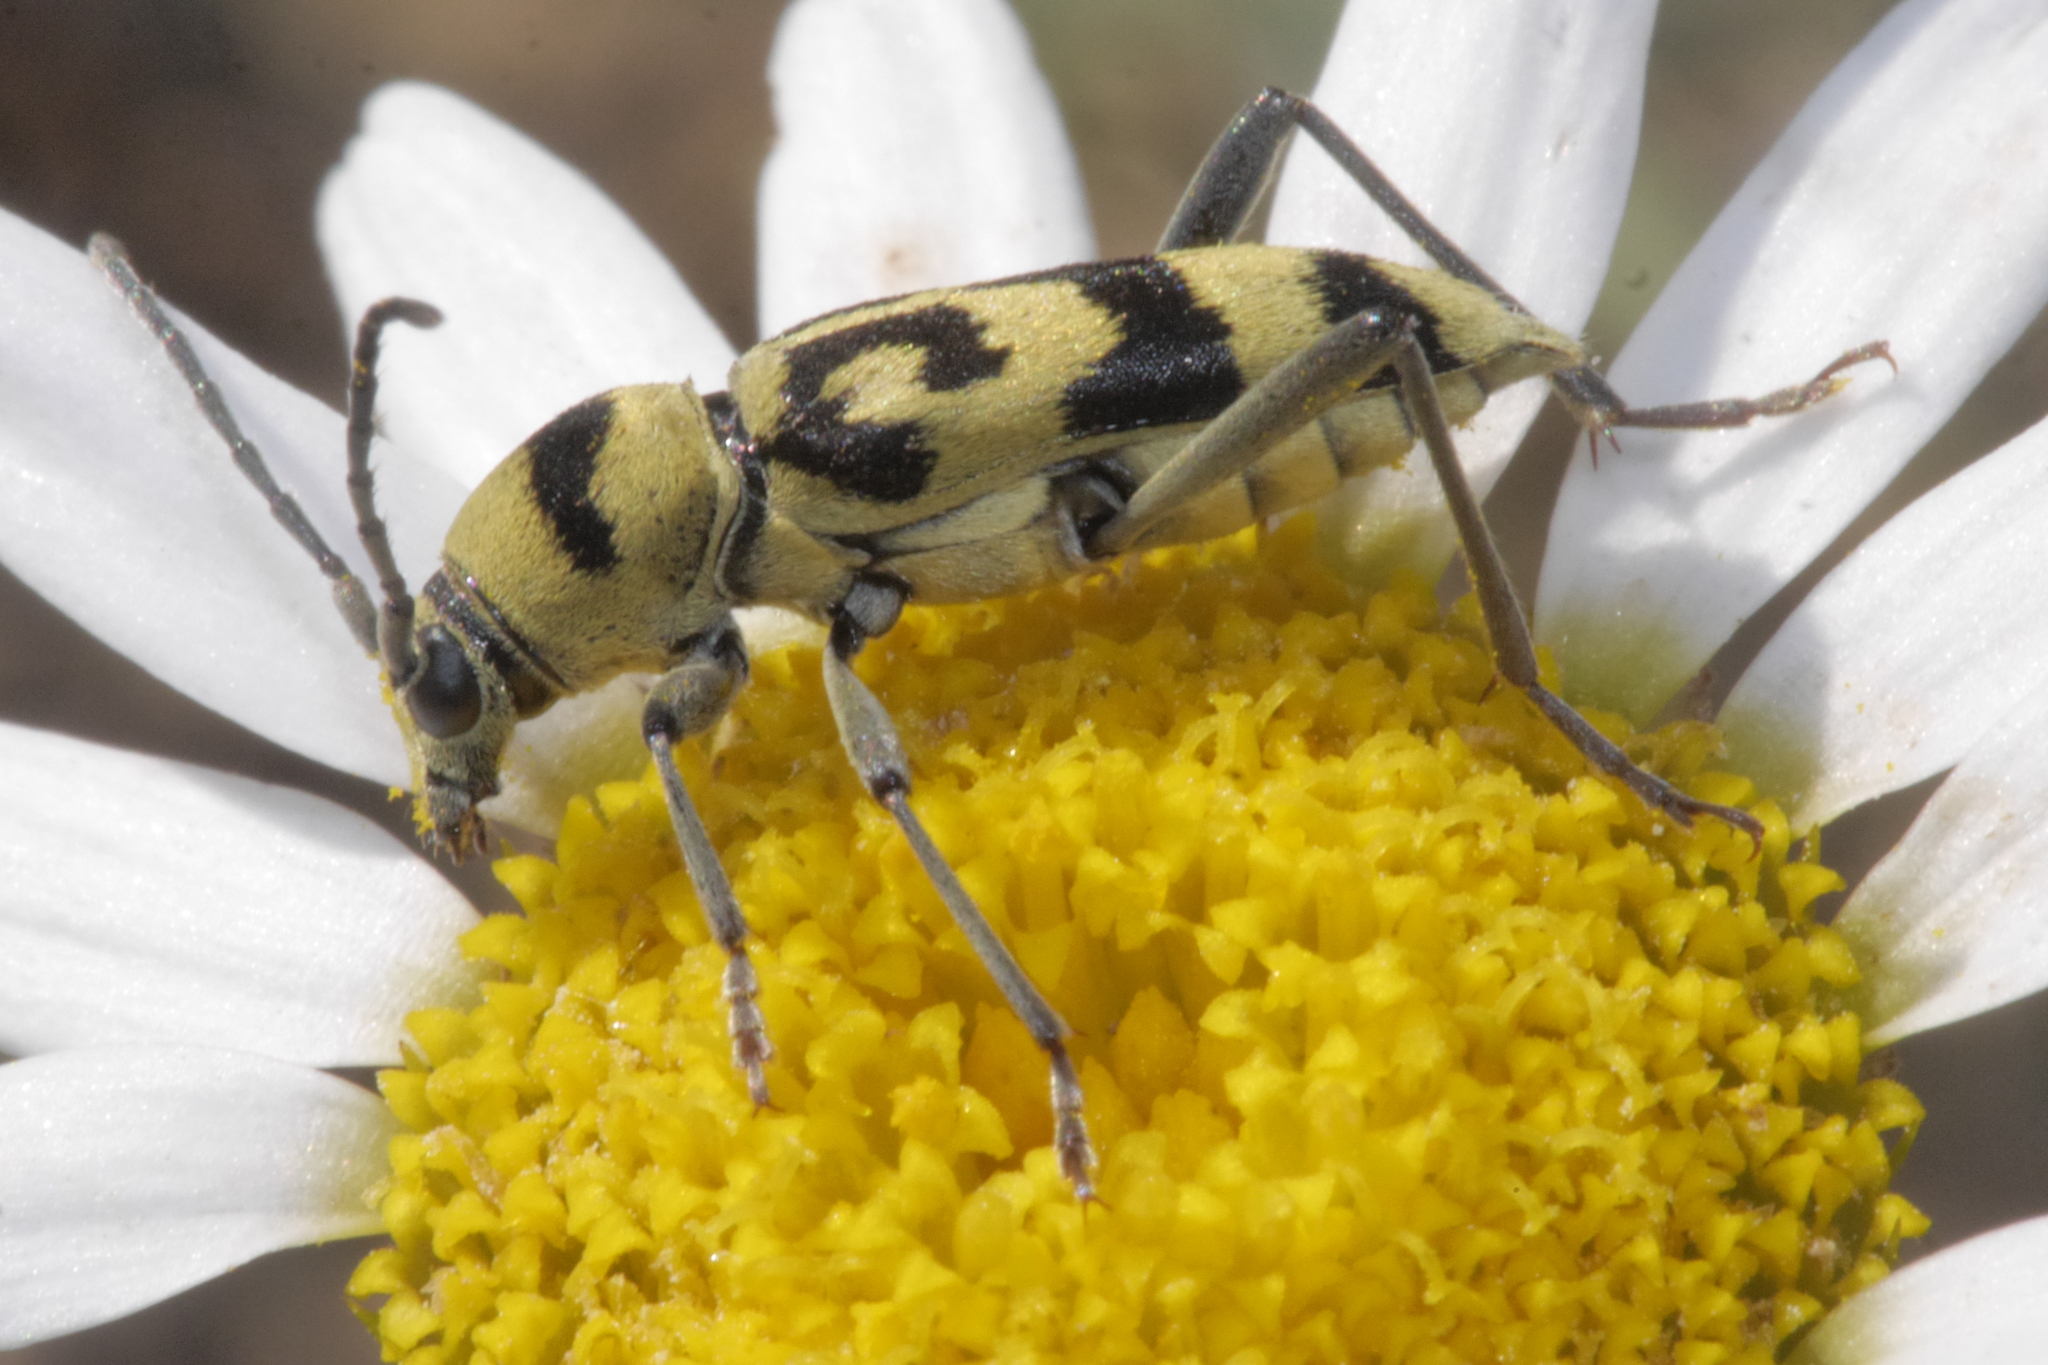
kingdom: Animalia
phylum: Arthropoda
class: Insecta
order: Coleoptera
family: Cerambycidae
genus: Chlorophorus
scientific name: Chlorophorus varius
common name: Grape wood borer
